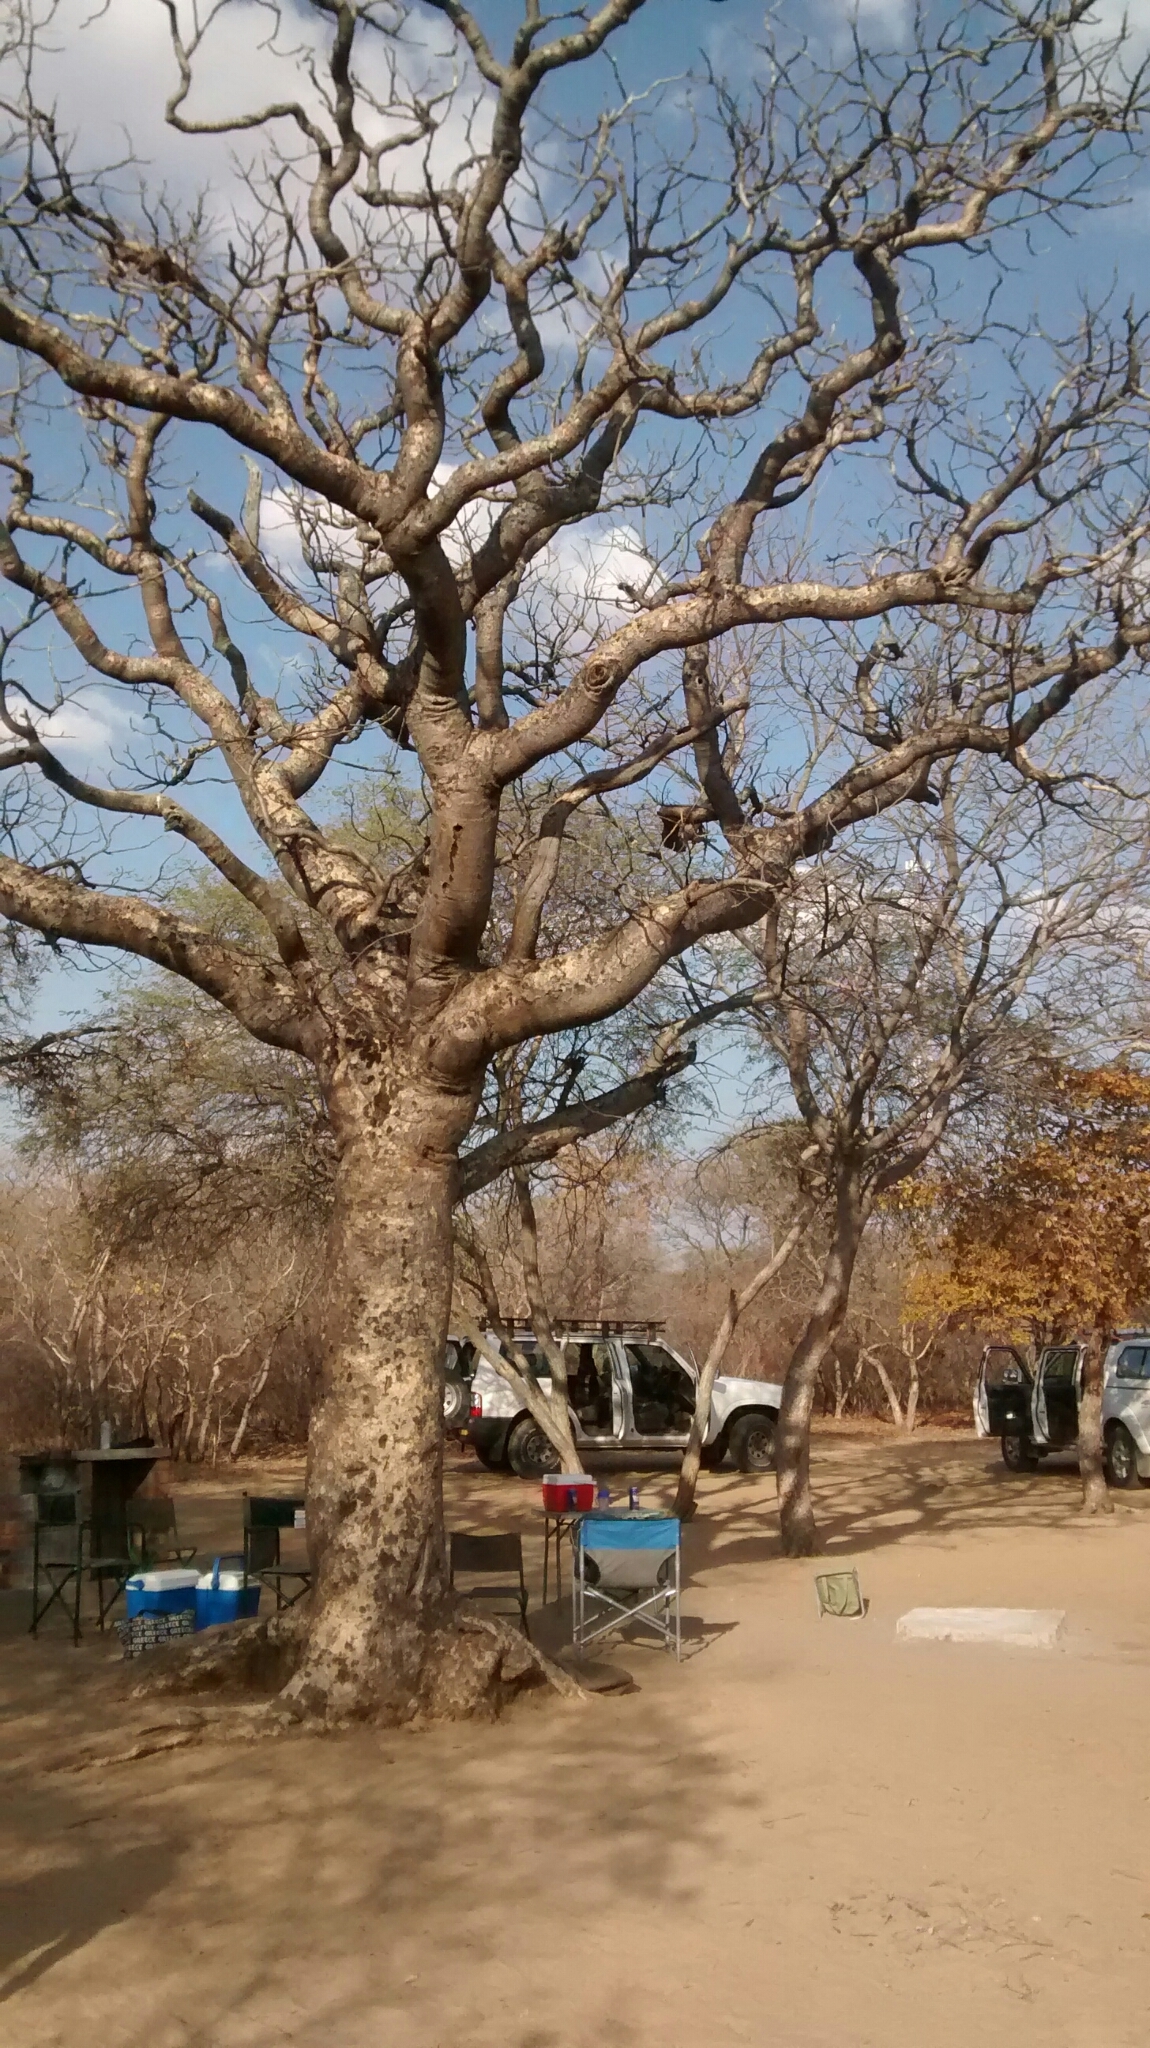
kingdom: Plantae
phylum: Tracheophyta
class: Magnoliopsida
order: Malpighiales
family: Euphorbiaceae
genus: Schinziophyton
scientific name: Schinziophyton rautanenii
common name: Manketti
